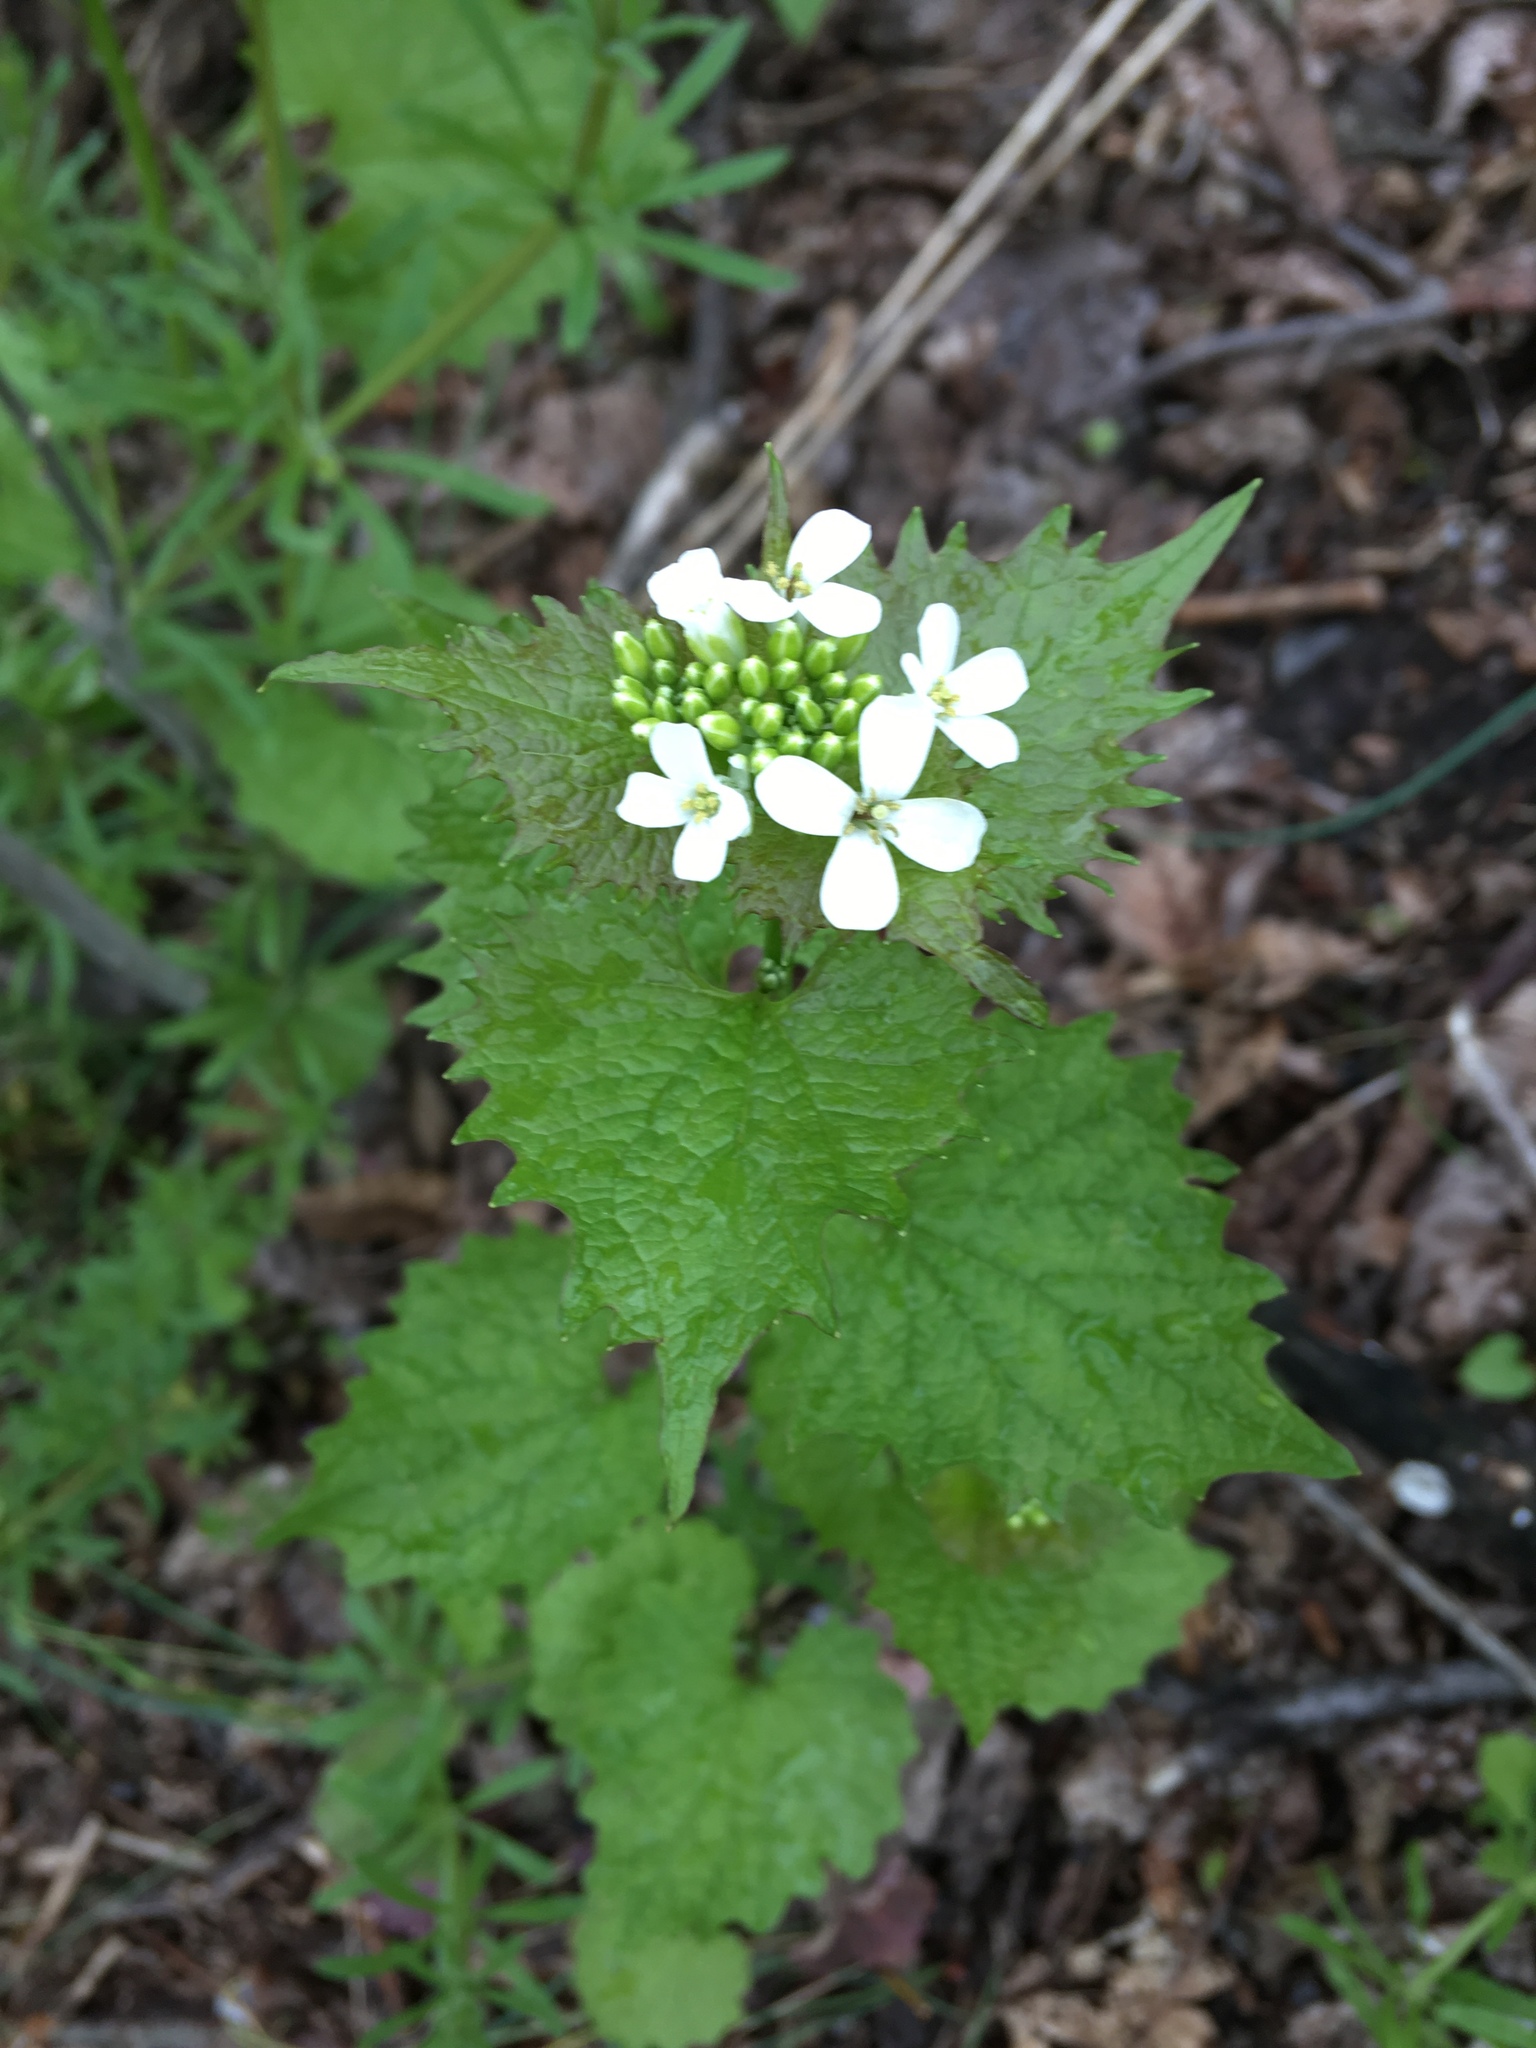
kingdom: Plantae
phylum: Tracheophyta
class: Magnoliopsida
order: Brassicales
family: Brassicaceae
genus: Alliaria
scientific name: Alliaria petiolata
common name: Garlic mustard
